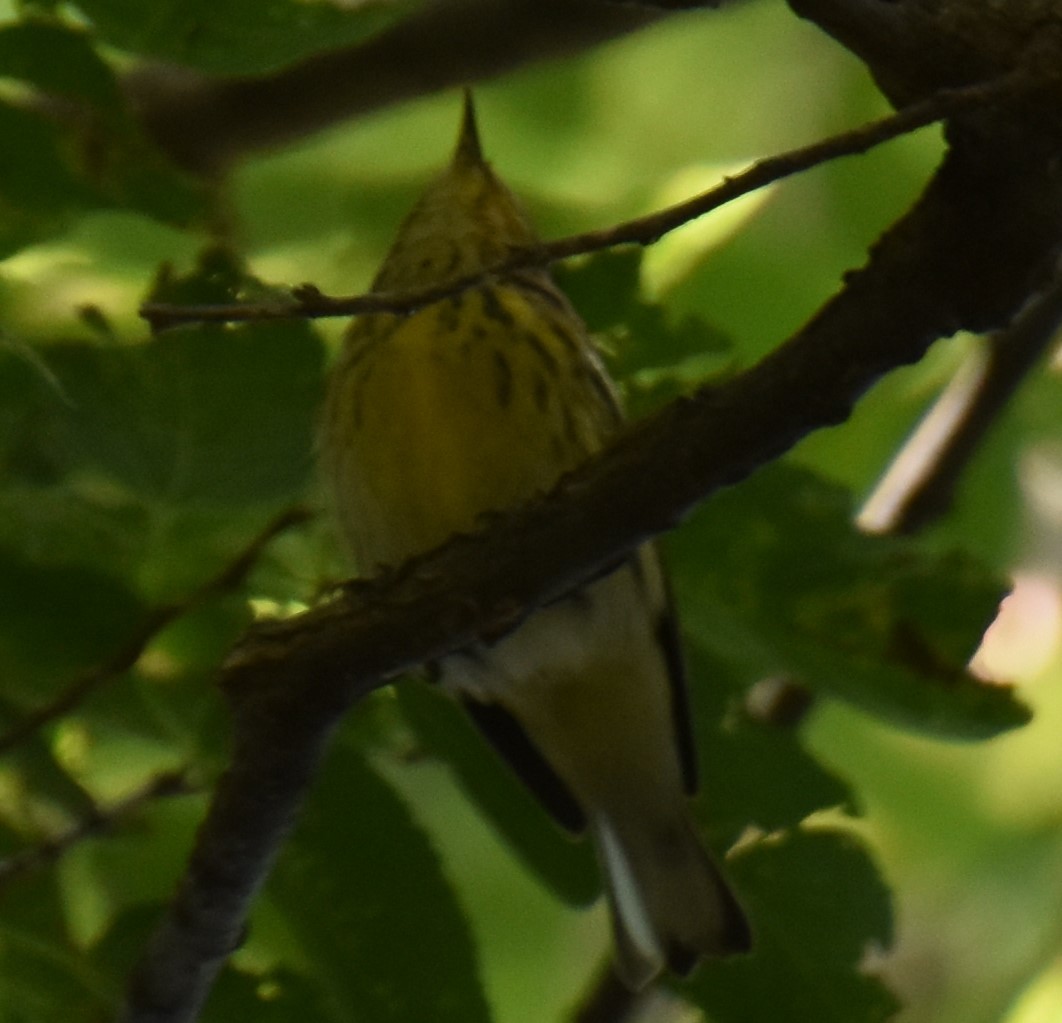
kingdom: Animalia
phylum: Chordata
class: Aves
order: Passeriformes
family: Parulidae
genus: Setophaga
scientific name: Setophaga tigrina
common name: Cape may warbler
